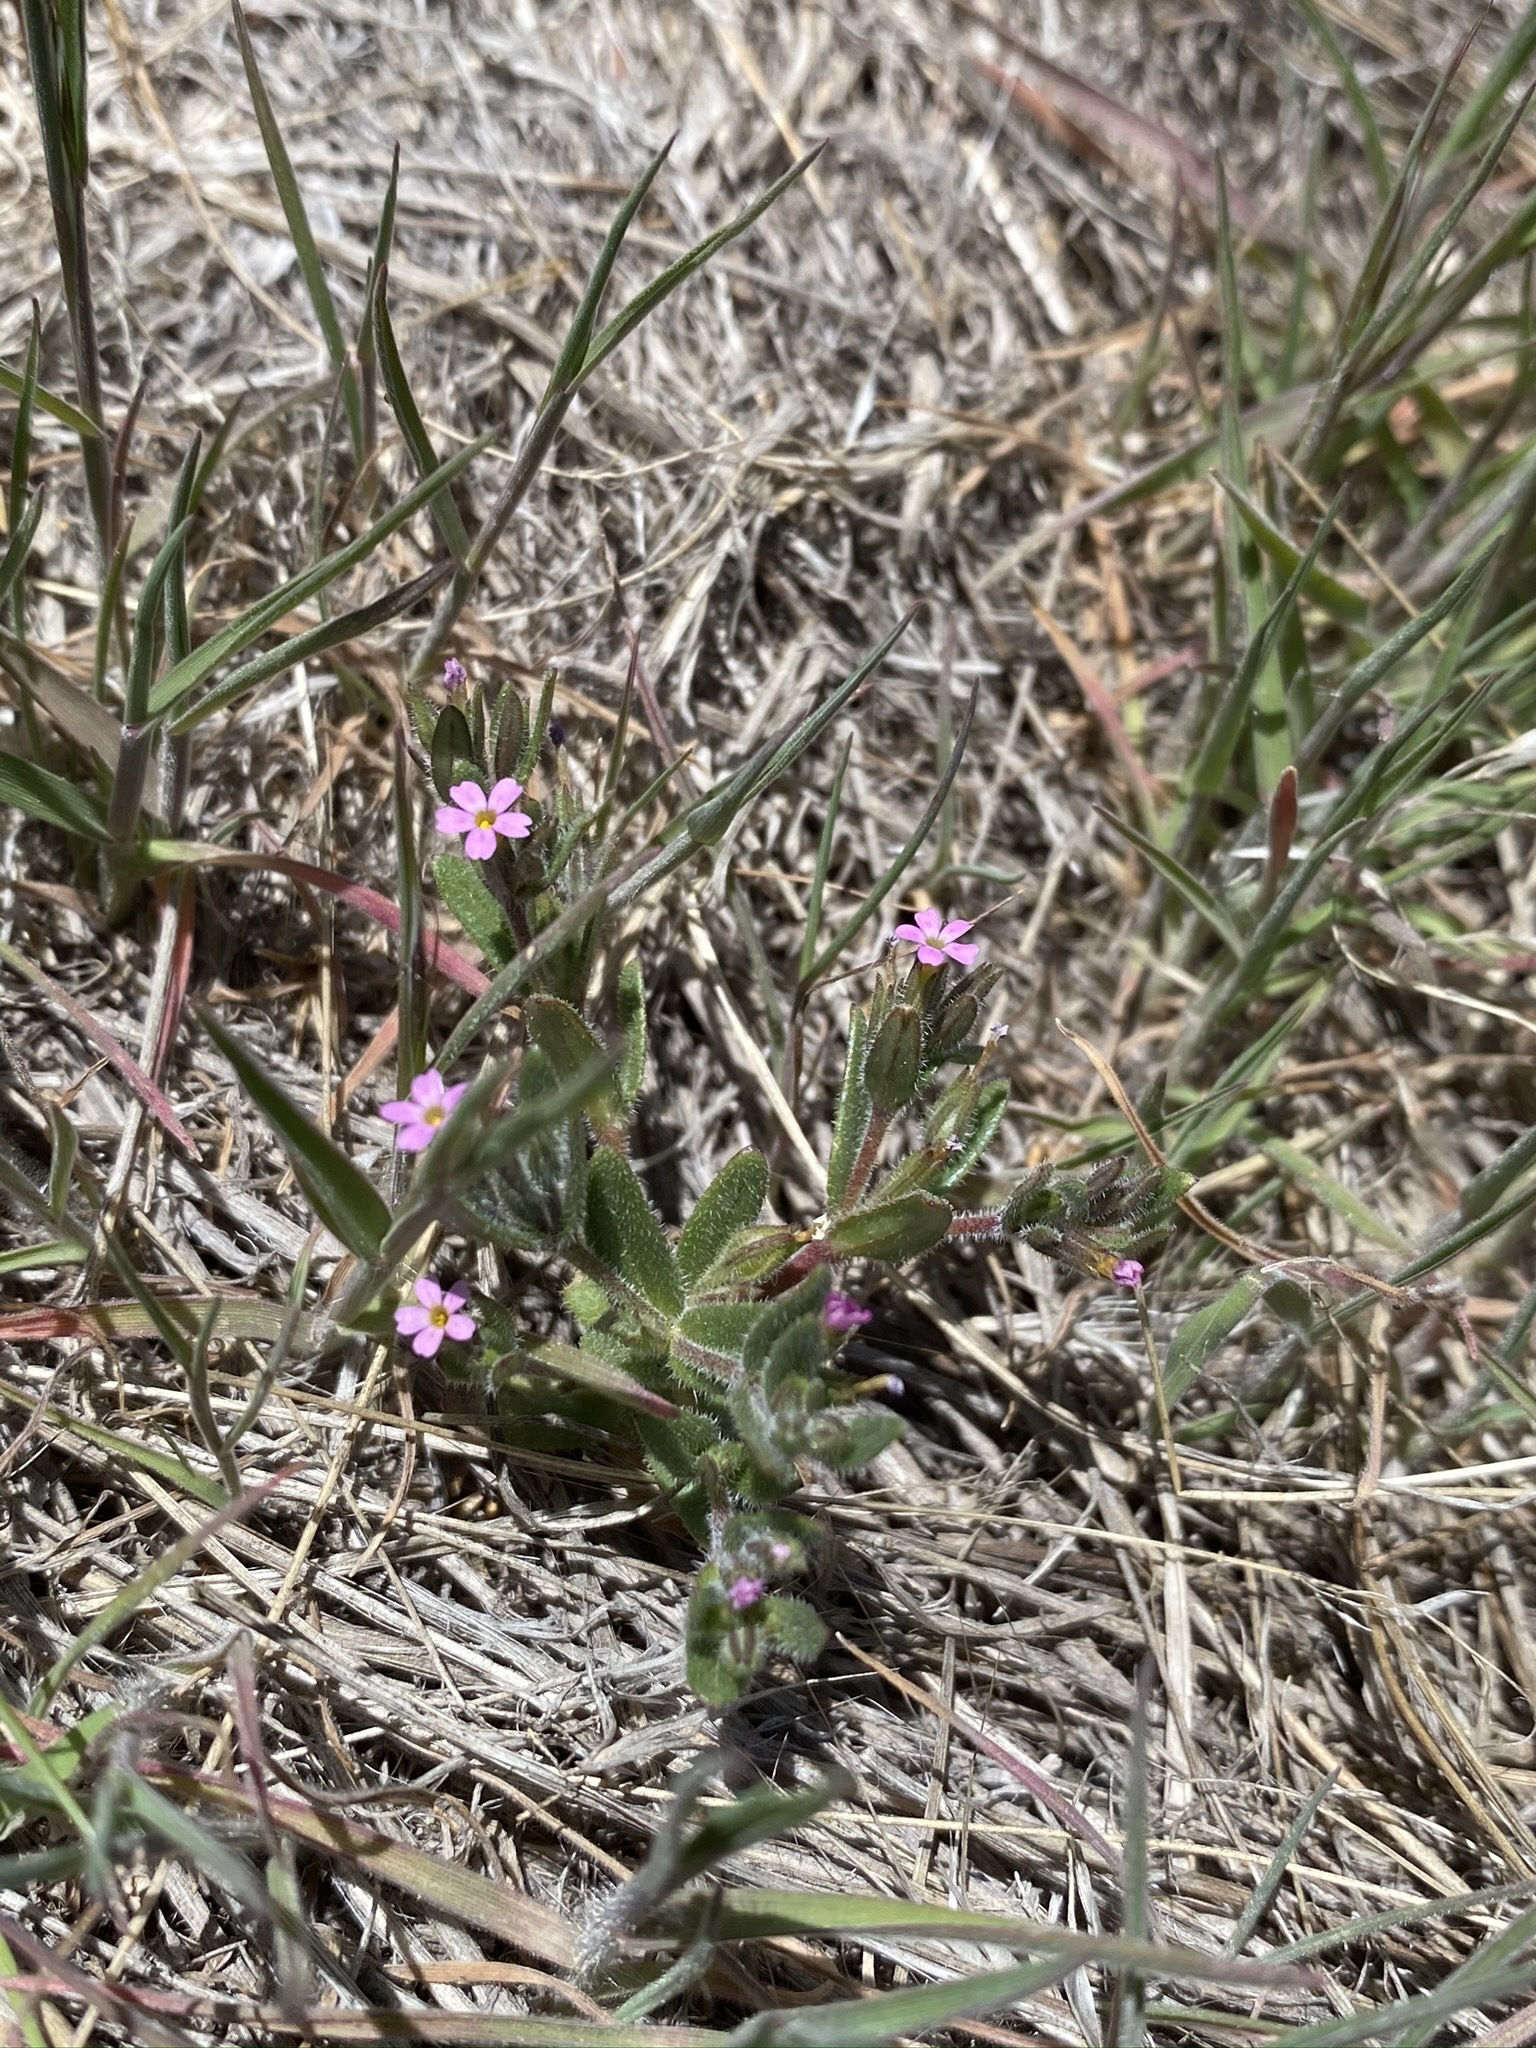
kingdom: Plantae
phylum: Tracheophyta
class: Magnoliopsida
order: Ericales
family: Polemoniaceae
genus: Phlox
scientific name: Phlox gracilis
